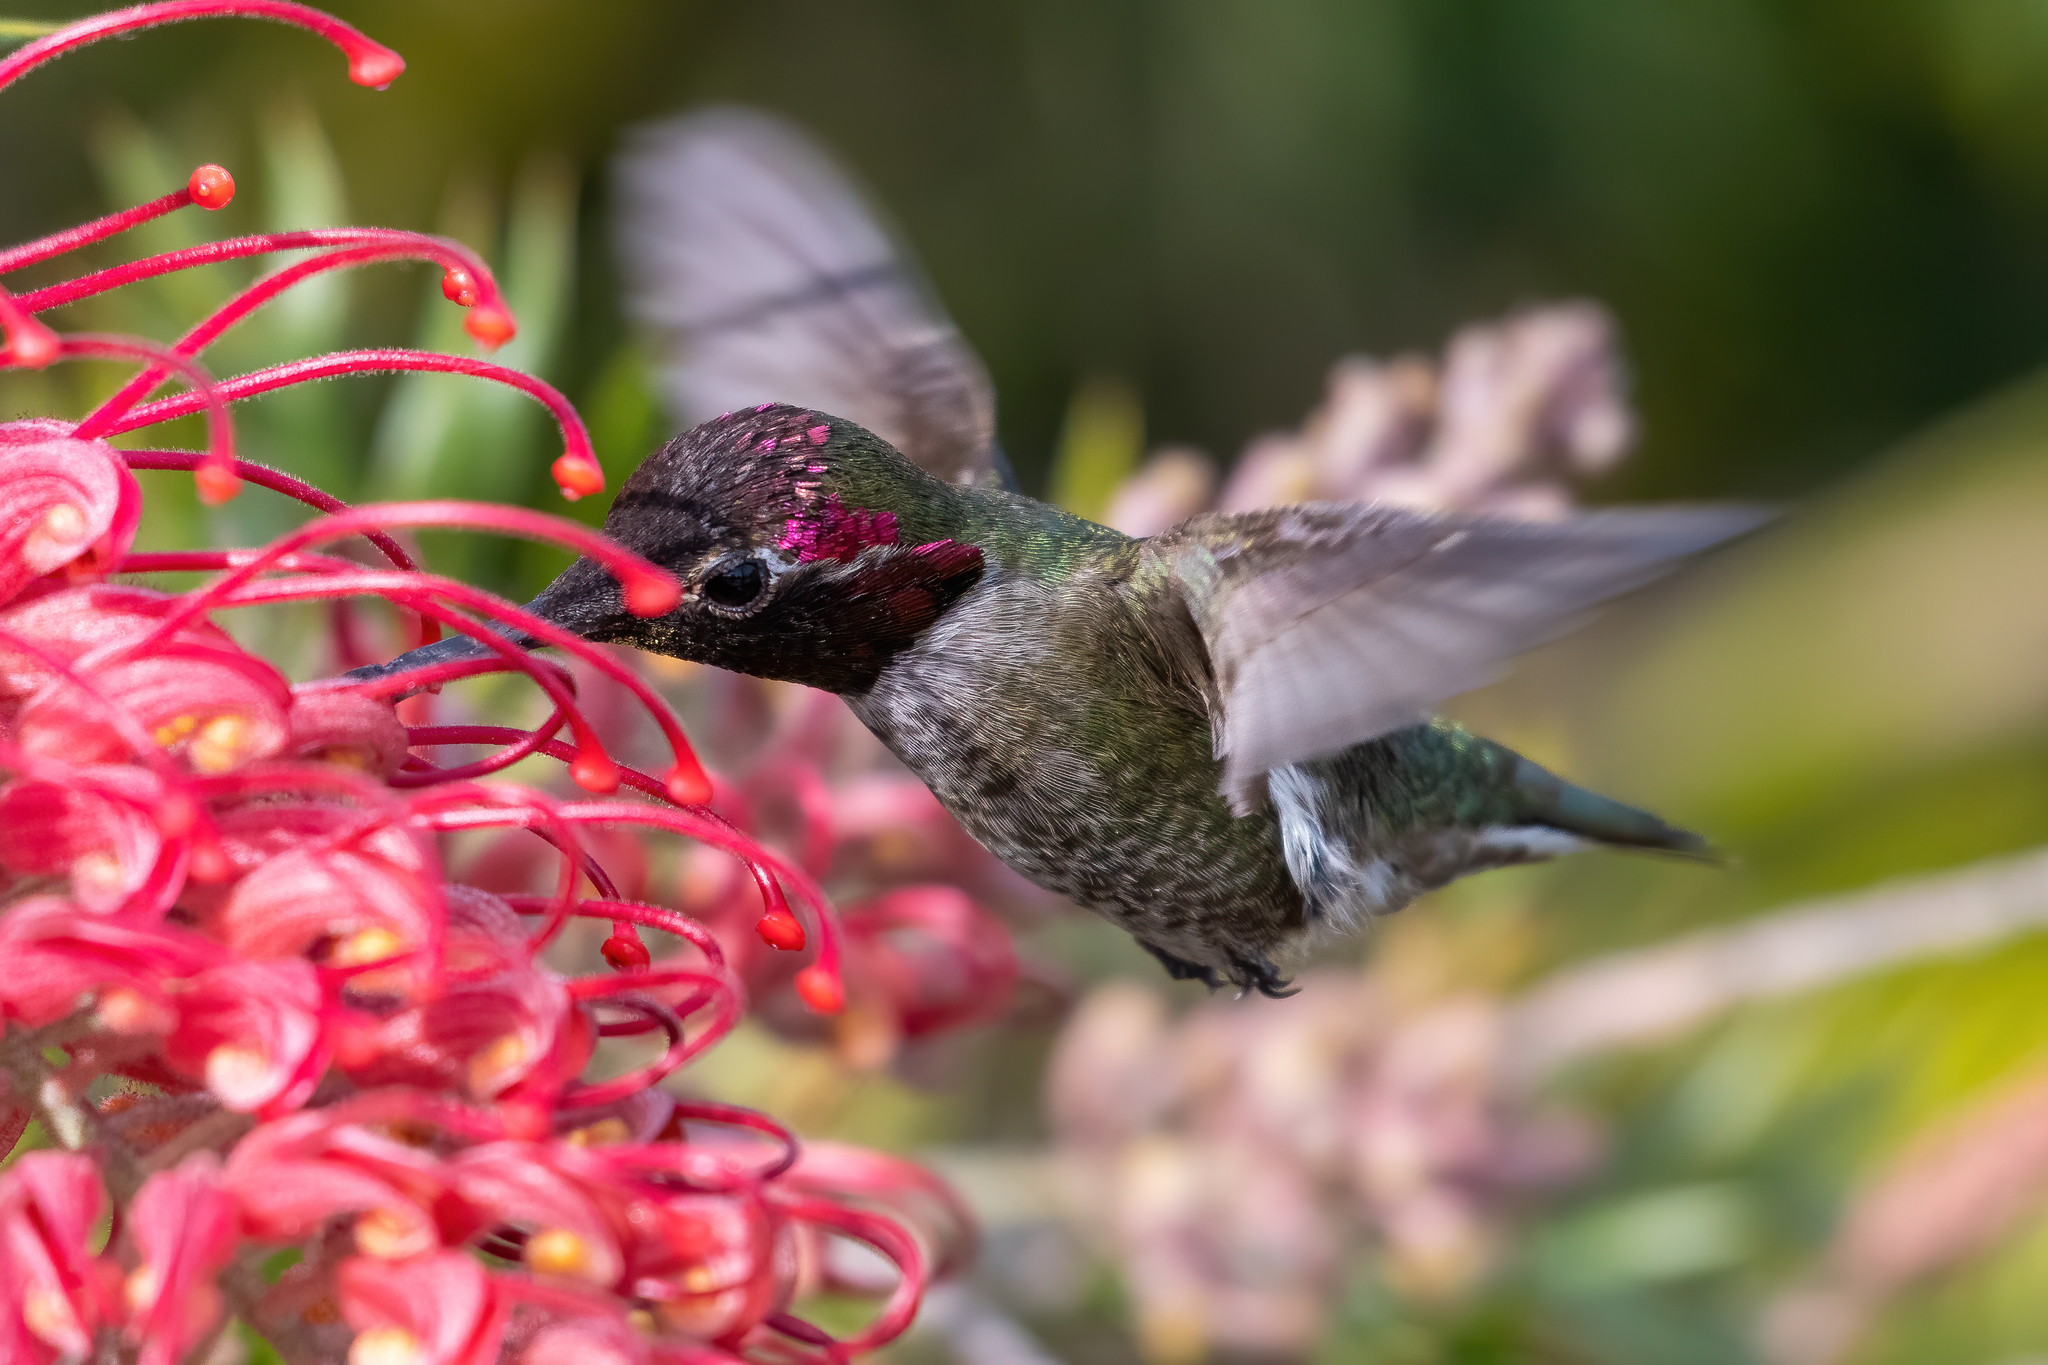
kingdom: Animalia
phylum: Chordata
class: Aves
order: Apodiformes
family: Trochilidae
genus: Calypte
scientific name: Calypte anna
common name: Anna's hummingbird
